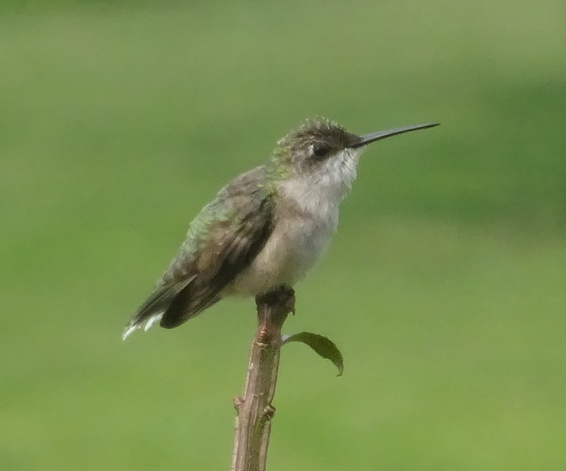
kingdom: Animalia
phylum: Chordata
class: Aves
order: Apodiformes
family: Trochilidae
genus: Archilochus
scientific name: Archilochus colubris
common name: Ruby-throated hummingbird
